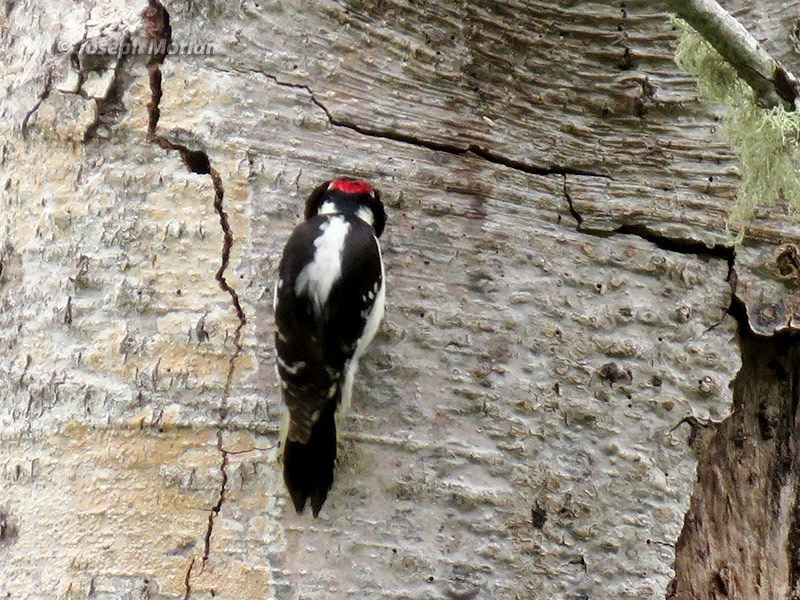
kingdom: Animalia
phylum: Chordata
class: Aves
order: Piciformes
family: Picidae
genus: Dryobates
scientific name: Dryobates pubescens
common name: Downy woodpecker
